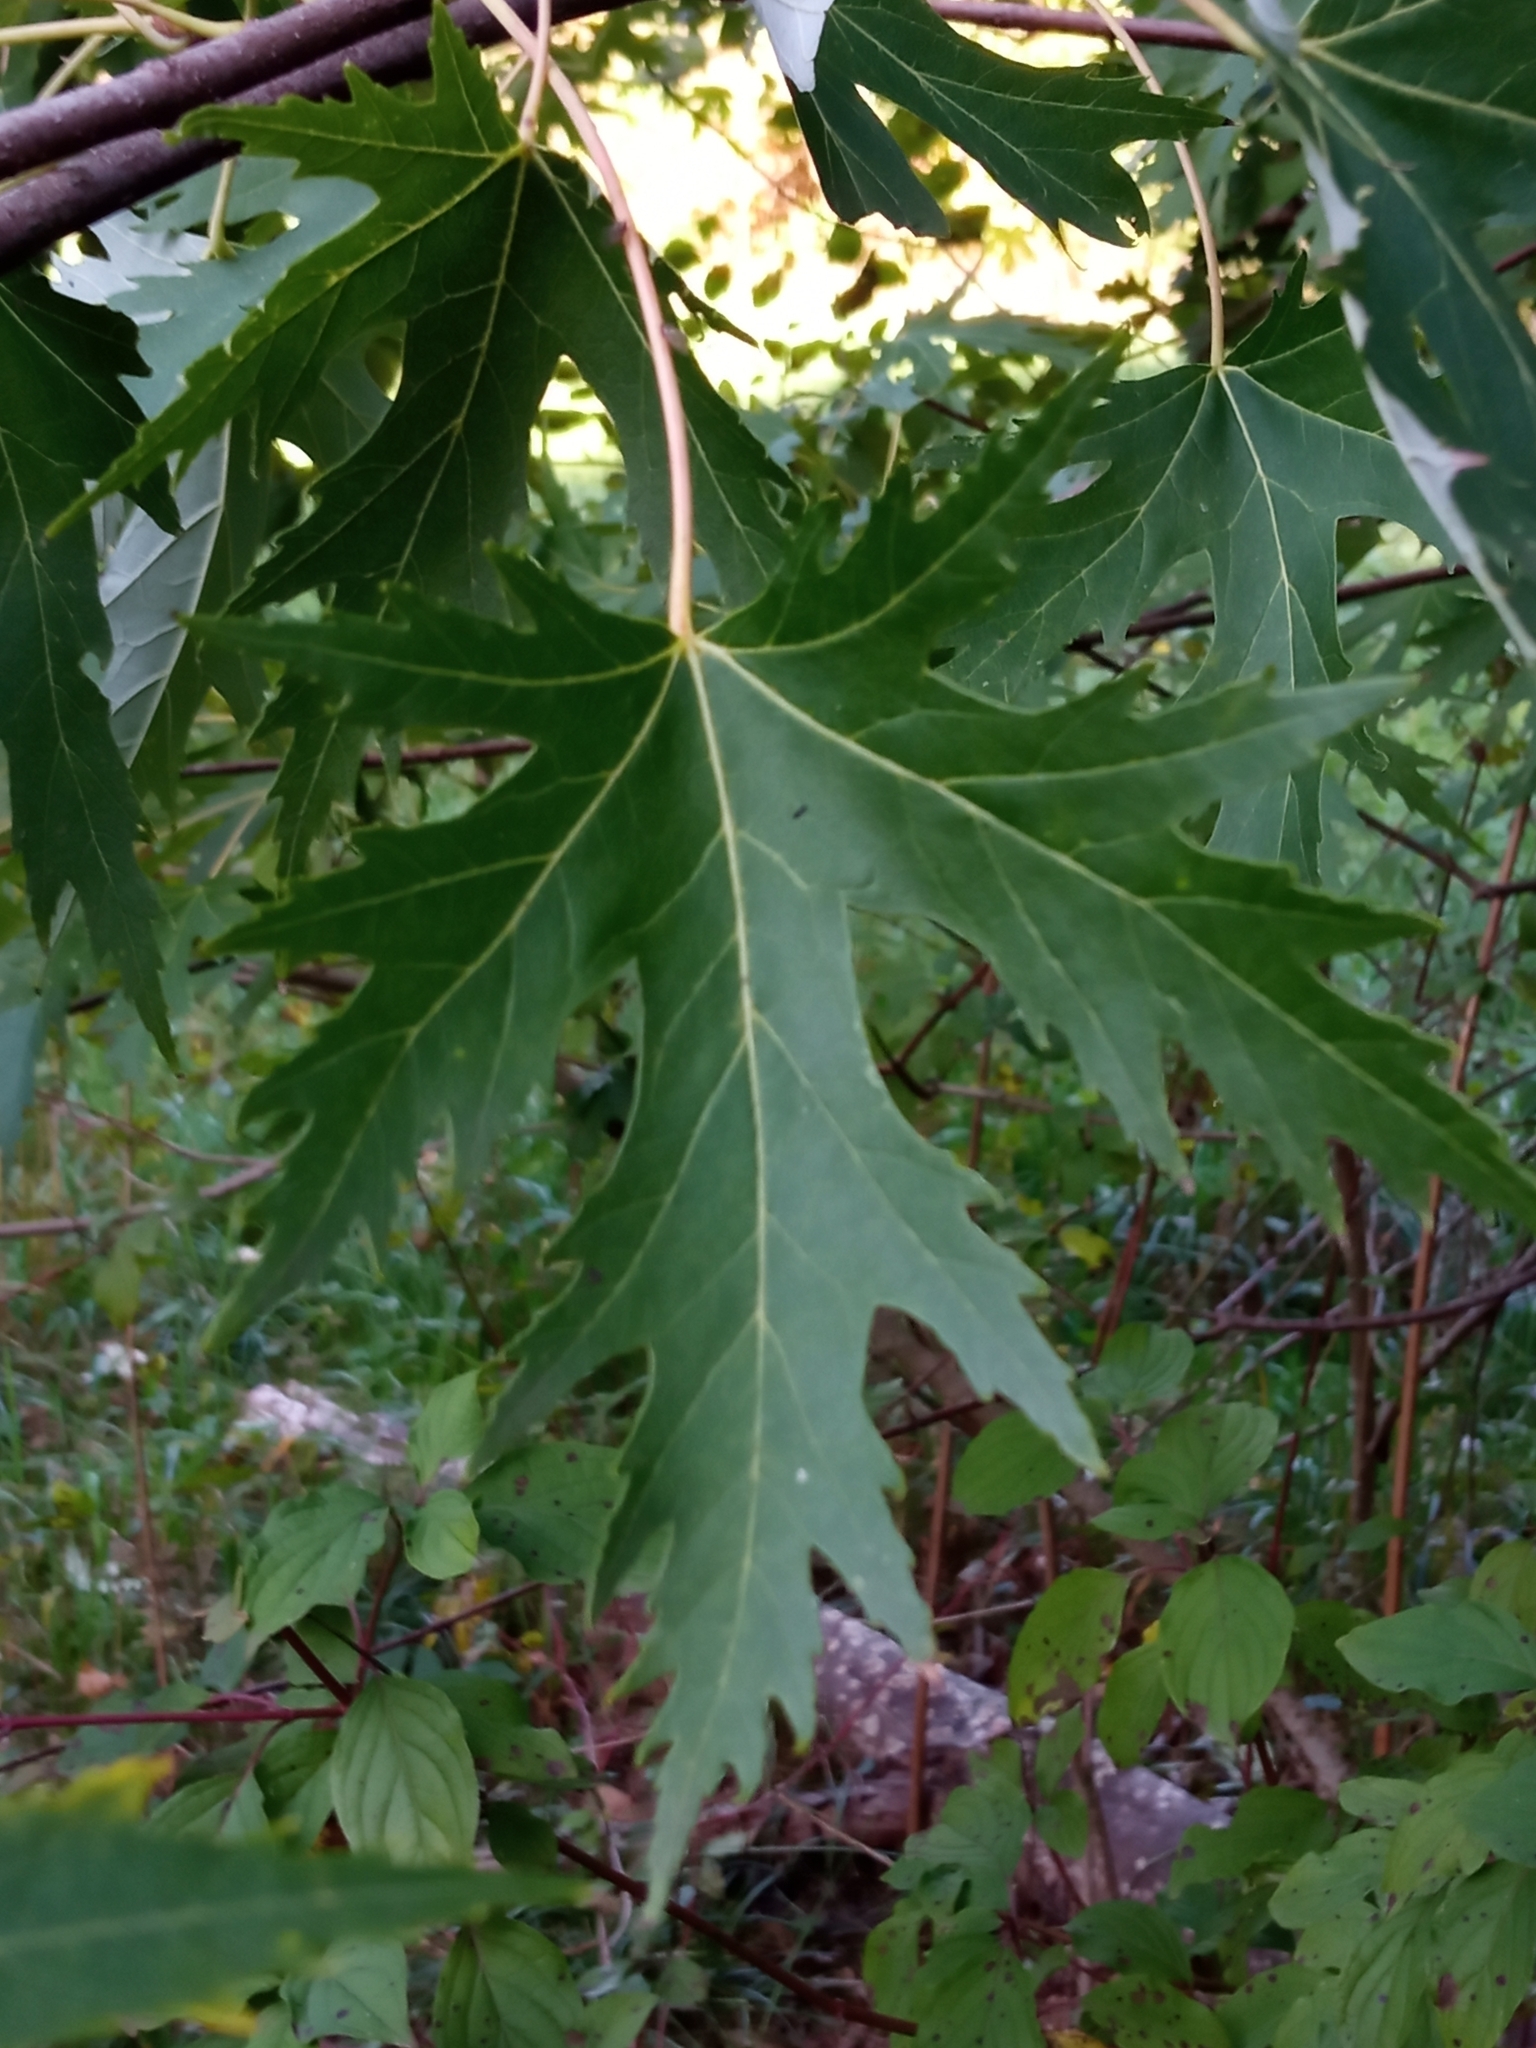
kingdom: Plantae
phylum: Tracheophyta
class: Magnoliopsida
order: Sapindales
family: Sapindaceae
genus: Acer
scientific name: Acer saccharinum
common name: Silver maple
